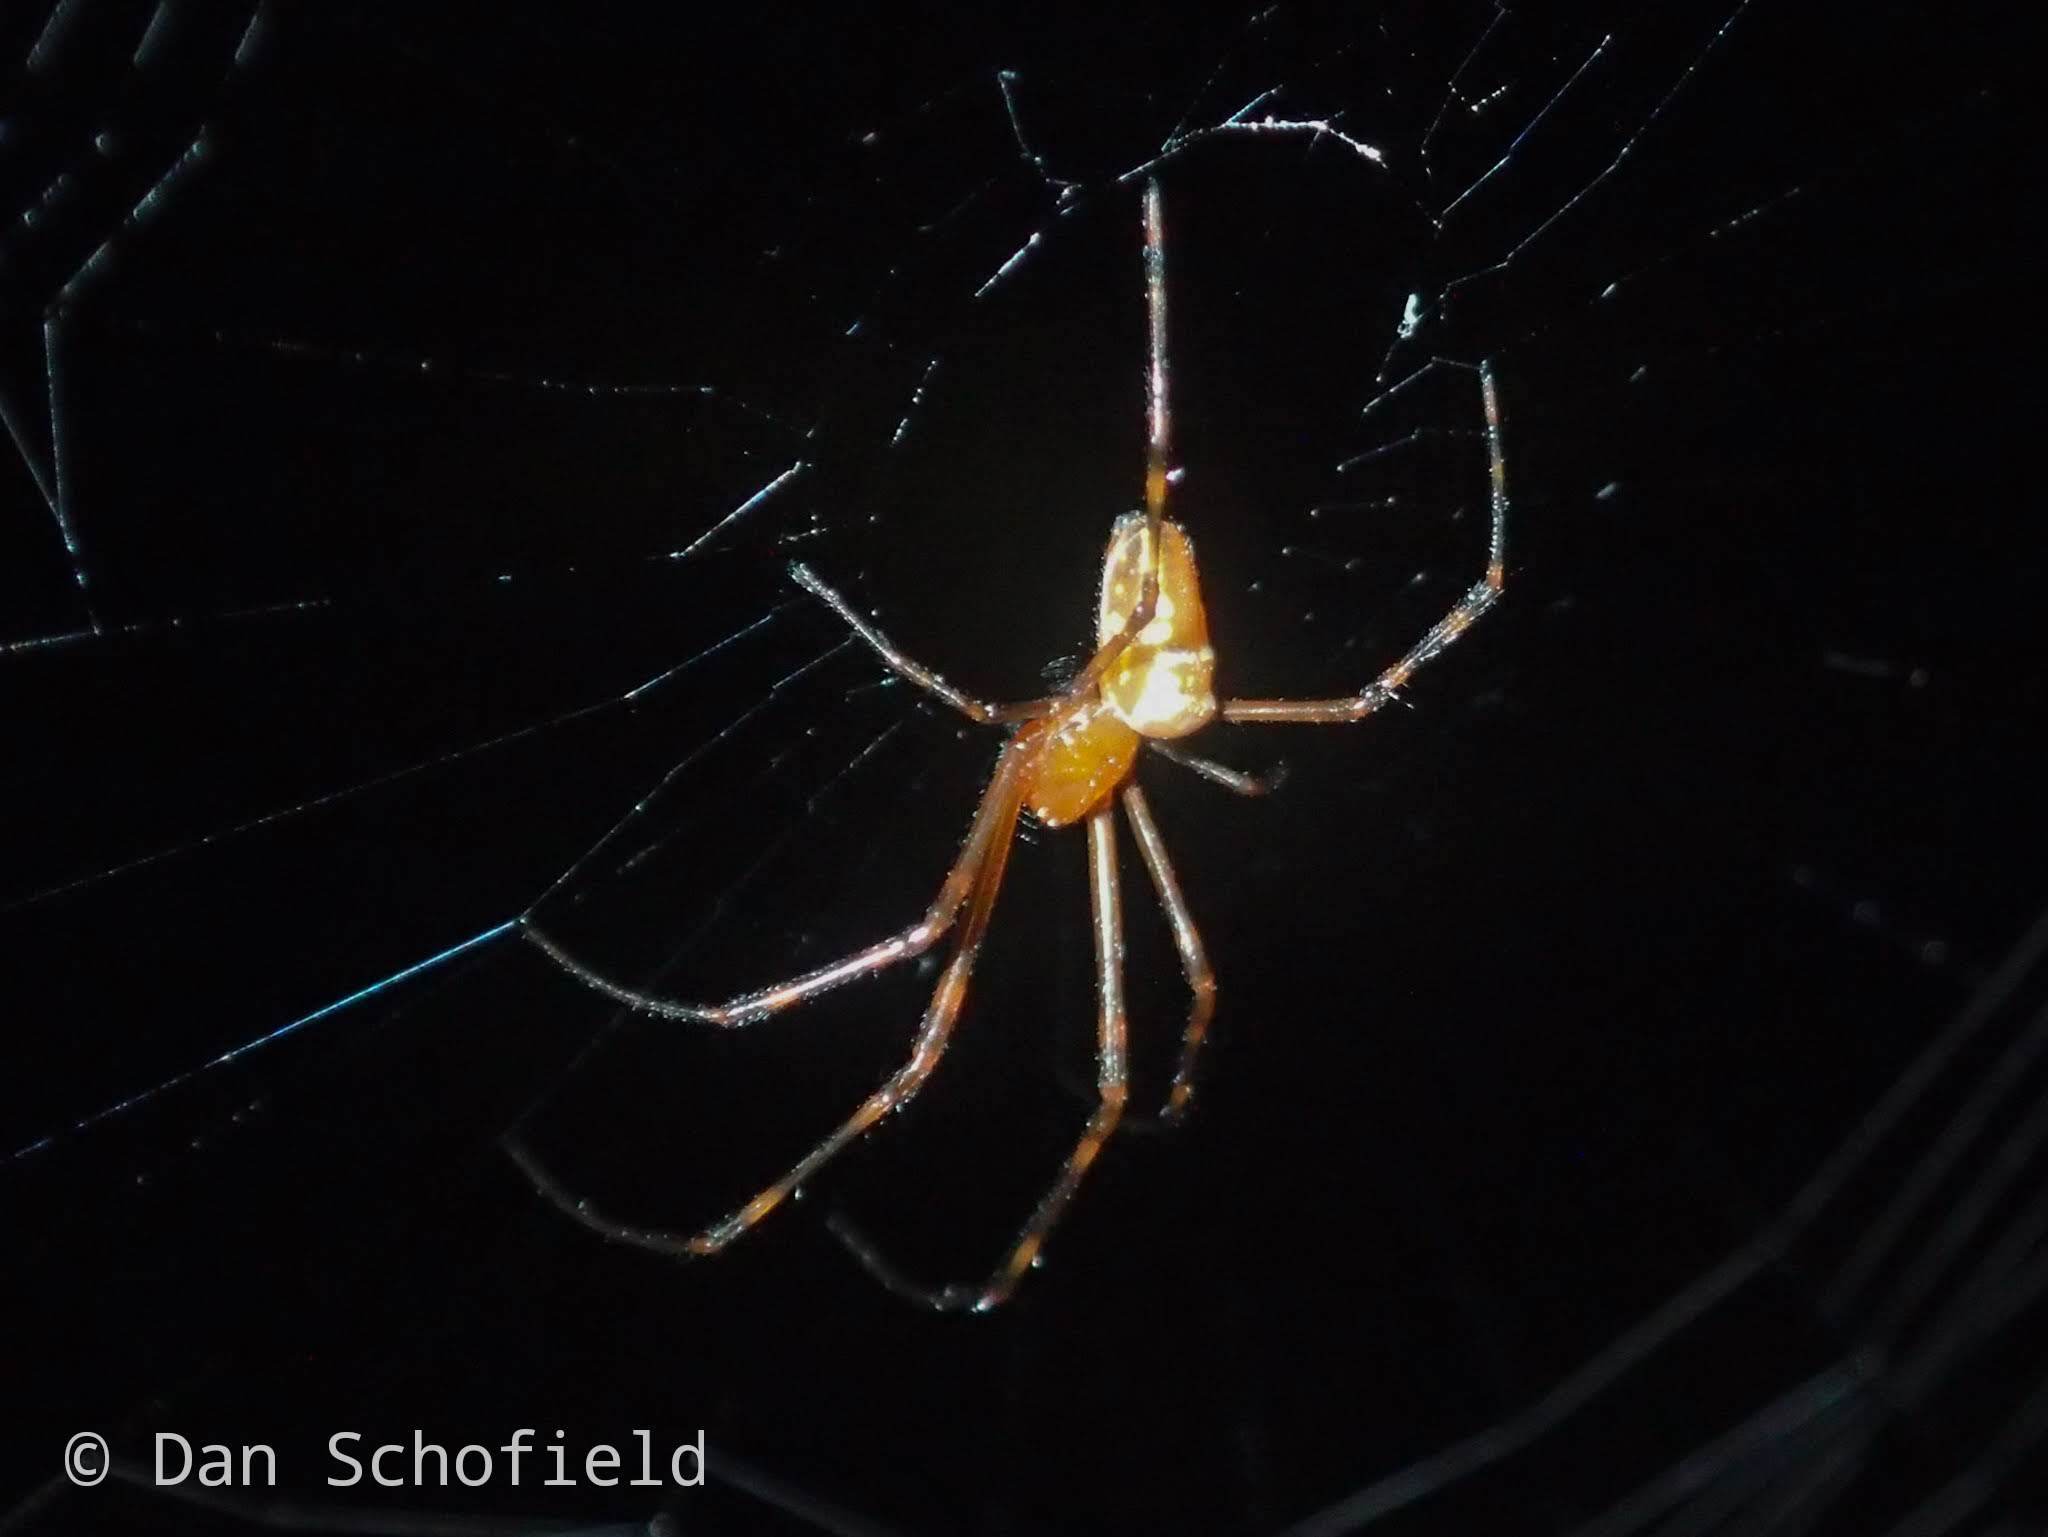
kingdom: Animalia
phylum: Arthropoda
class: Arachnida
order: Araneae
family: Tetragnathidae
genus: Leucauge
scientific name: Leucauge granulata
